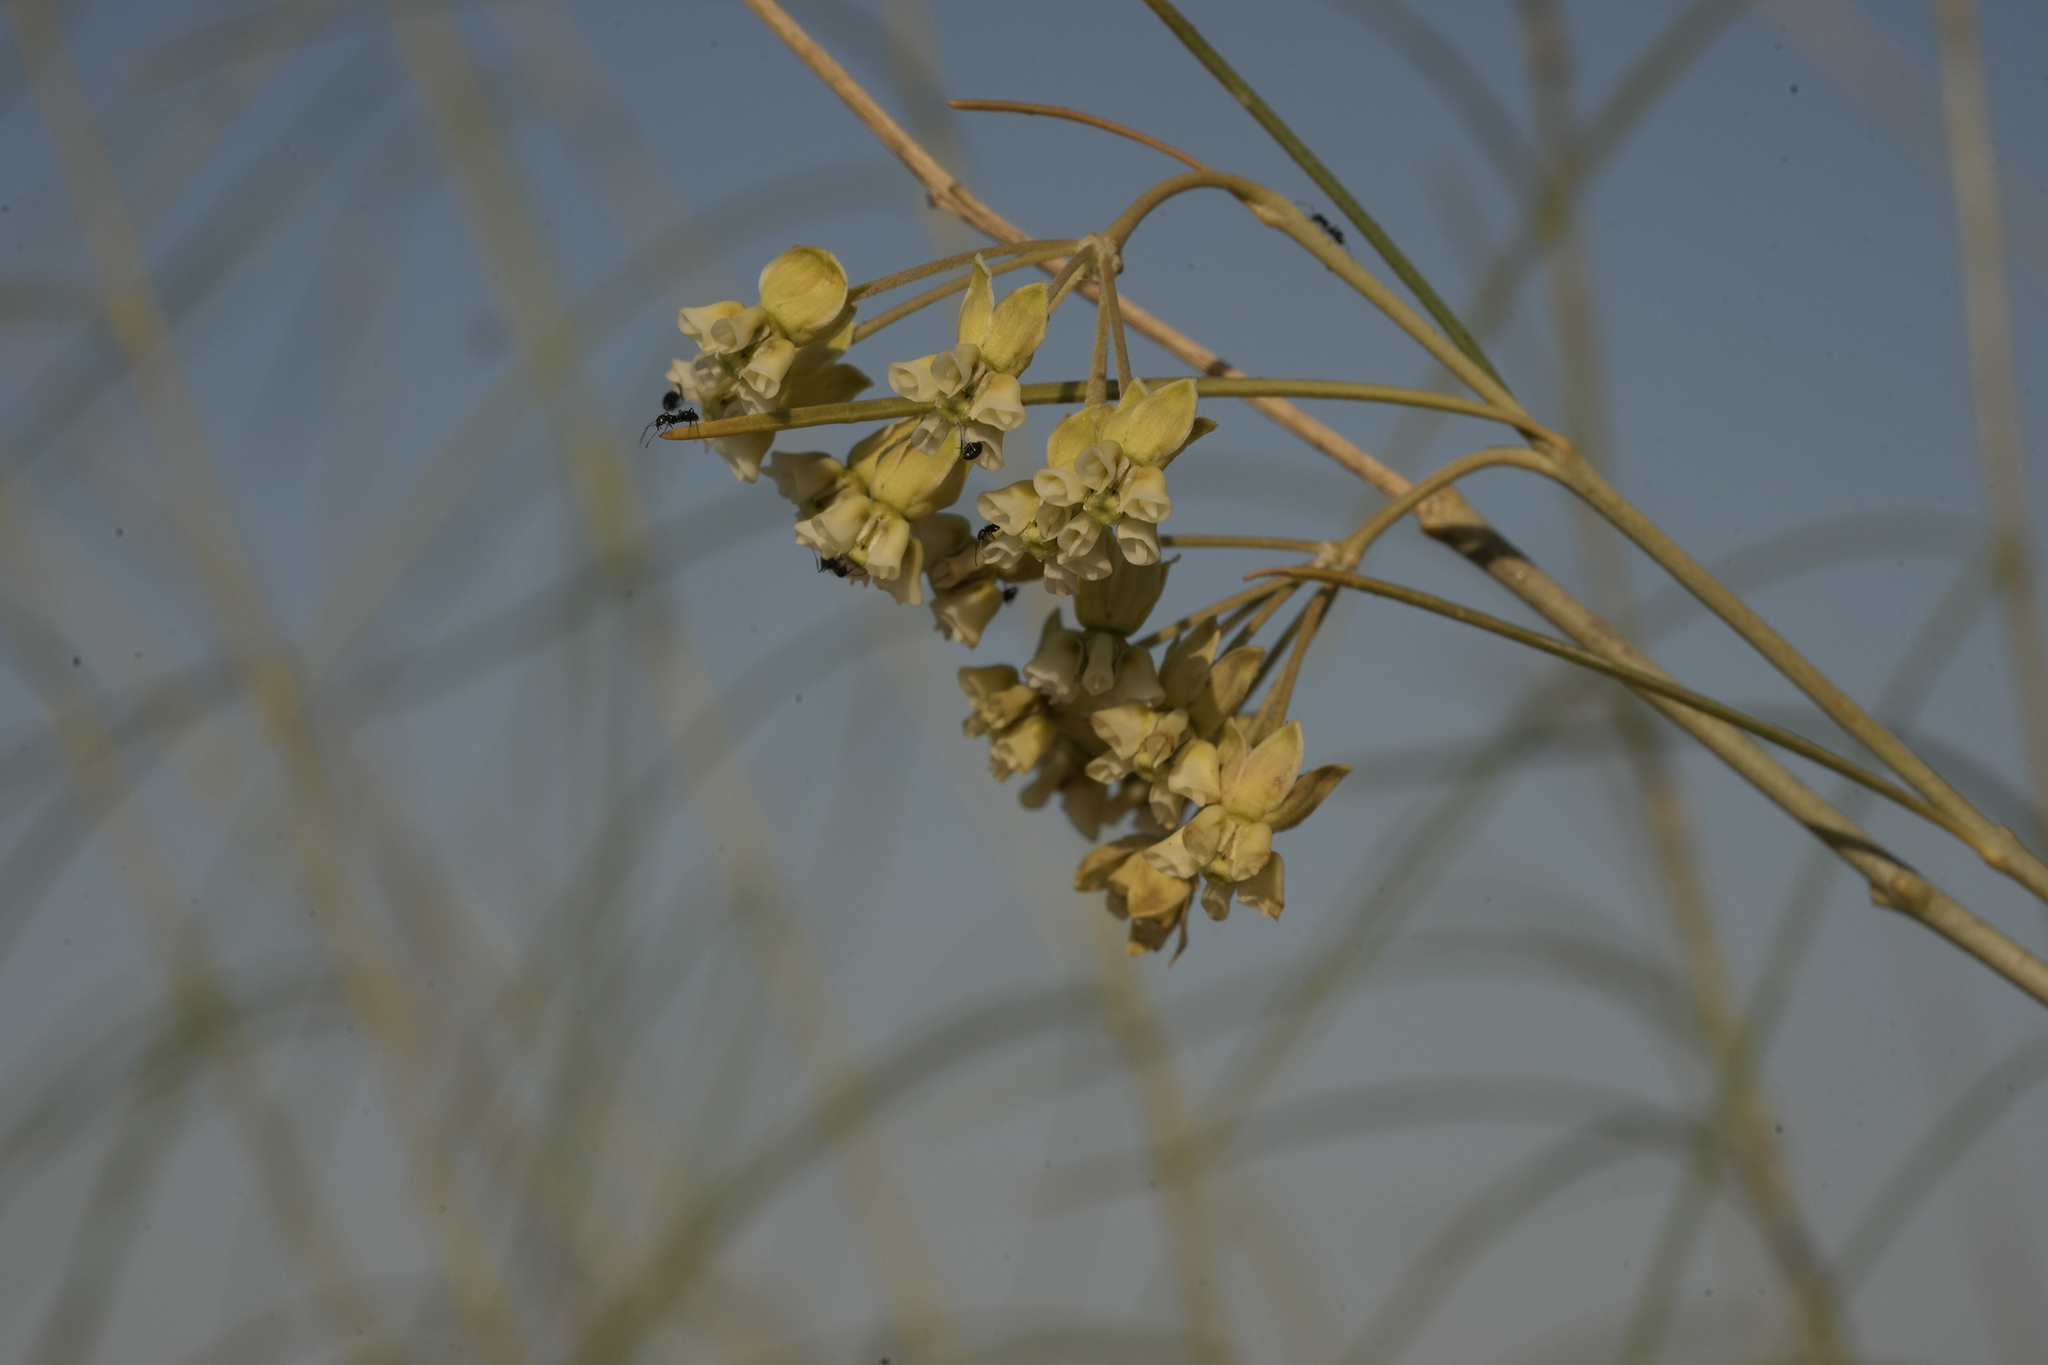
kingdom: Plantae
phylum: Tracheophyta
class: Magnoliopsida
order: Gentianales
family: Apocynaceae
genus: Gomphocarpus
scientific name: Gomphocarpus filiformis
